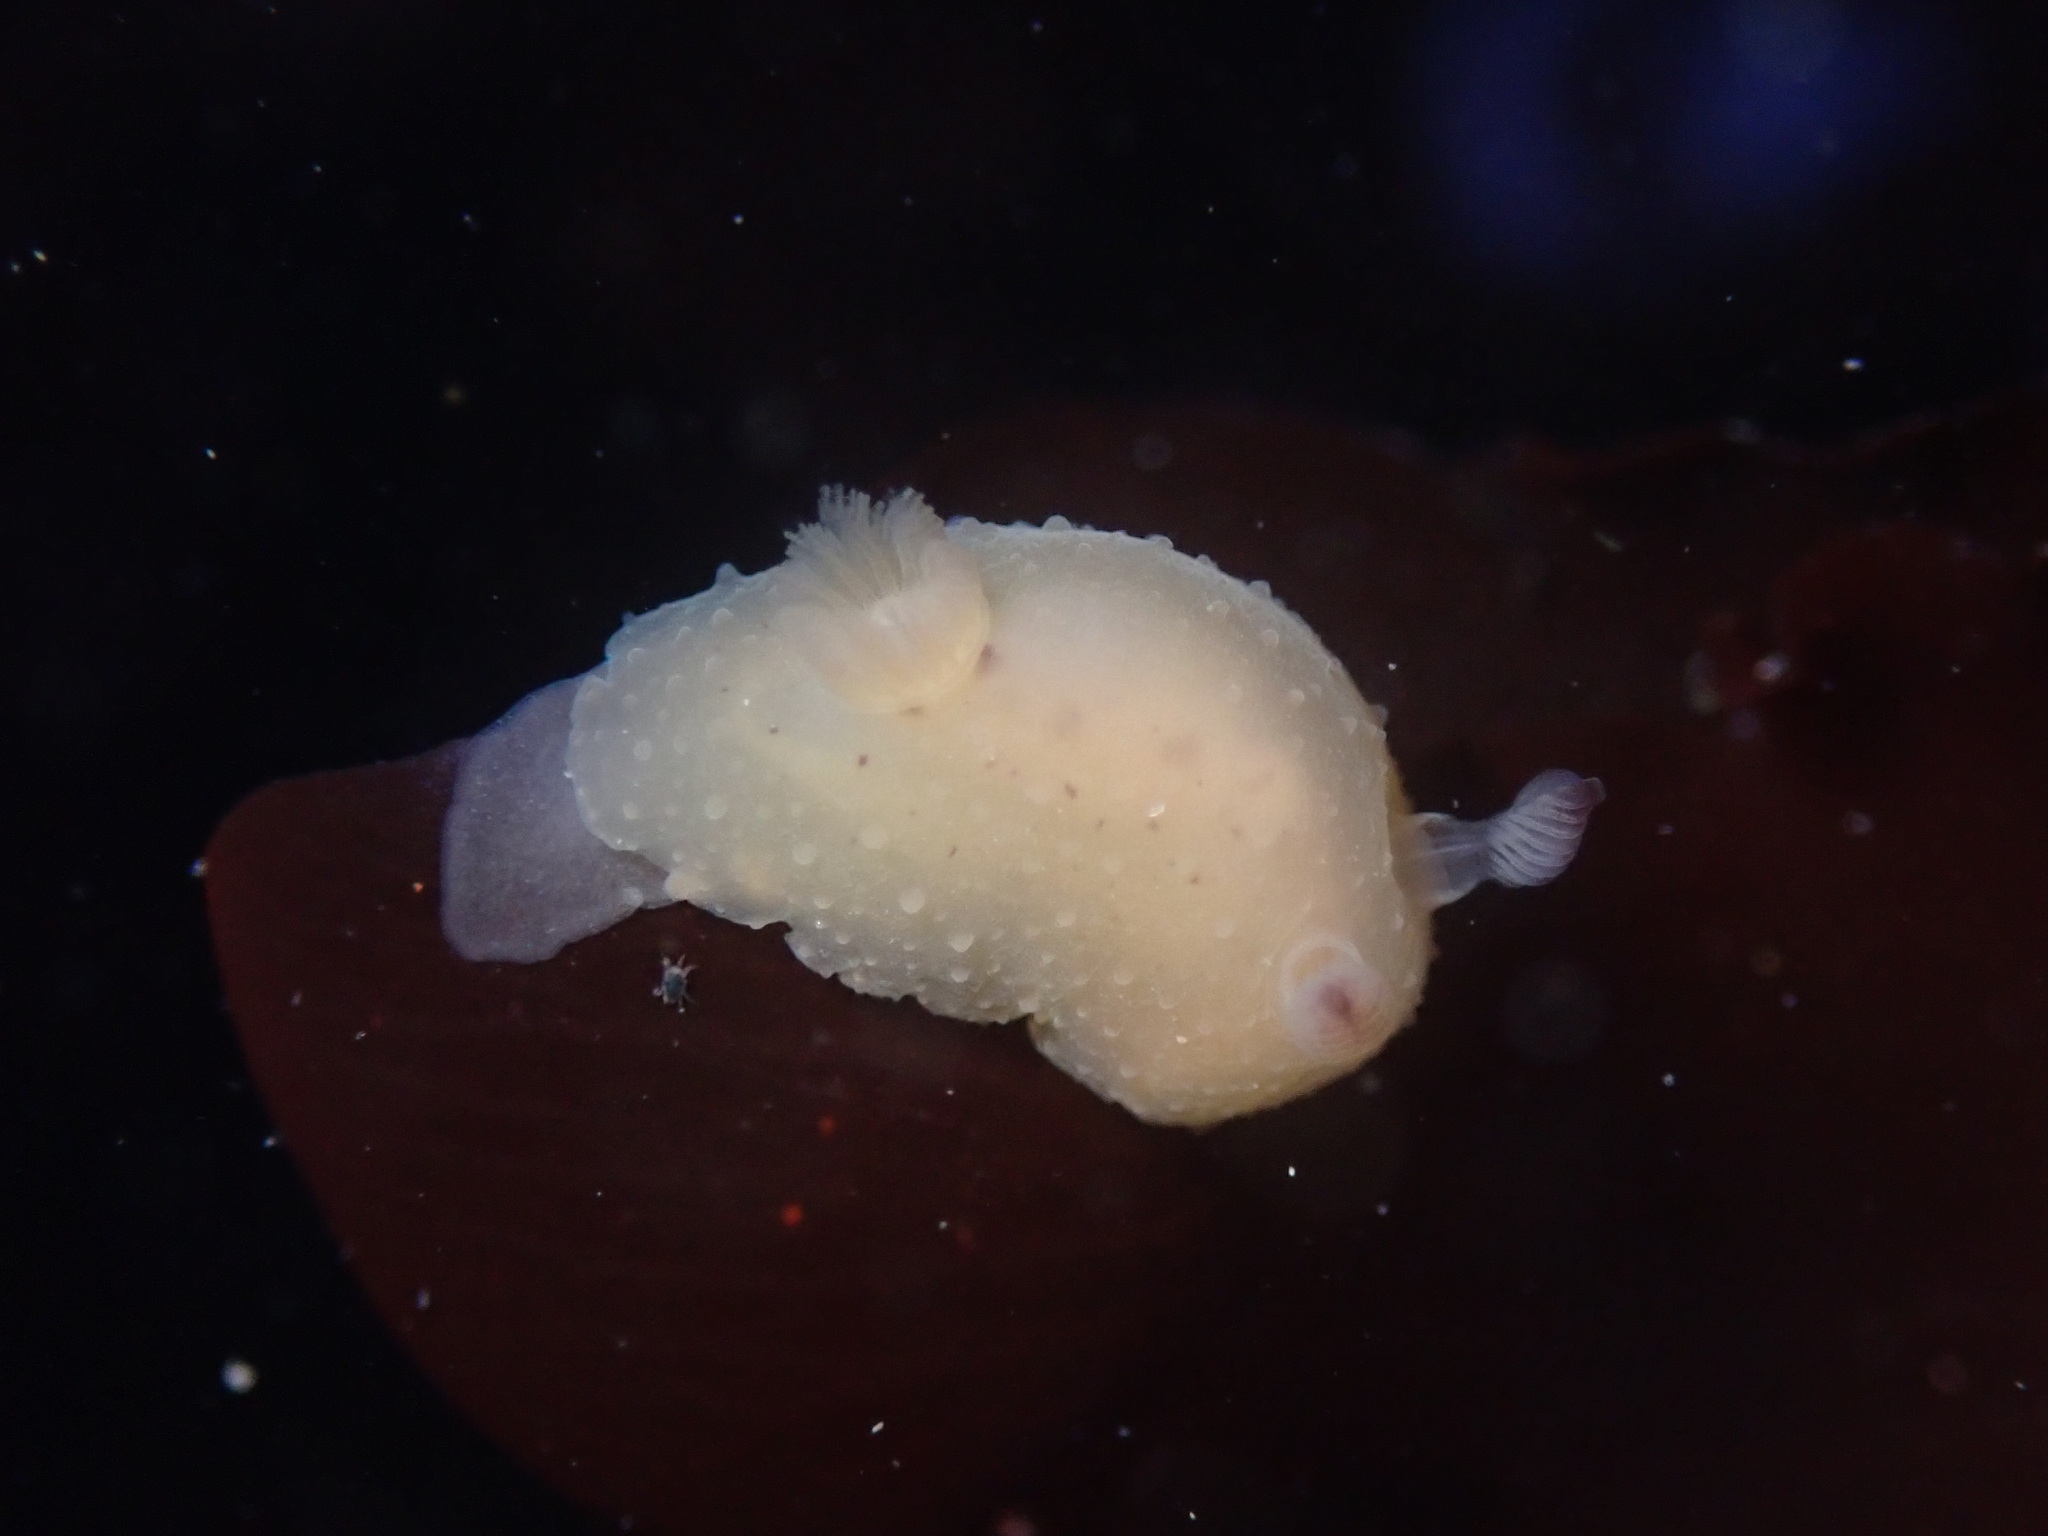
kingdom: Animalia
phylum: Mollusca
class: Gastropoda
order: Nudibranchia
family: Actinocyclidae
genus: Hallaxa
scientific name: Hallaxa chani
